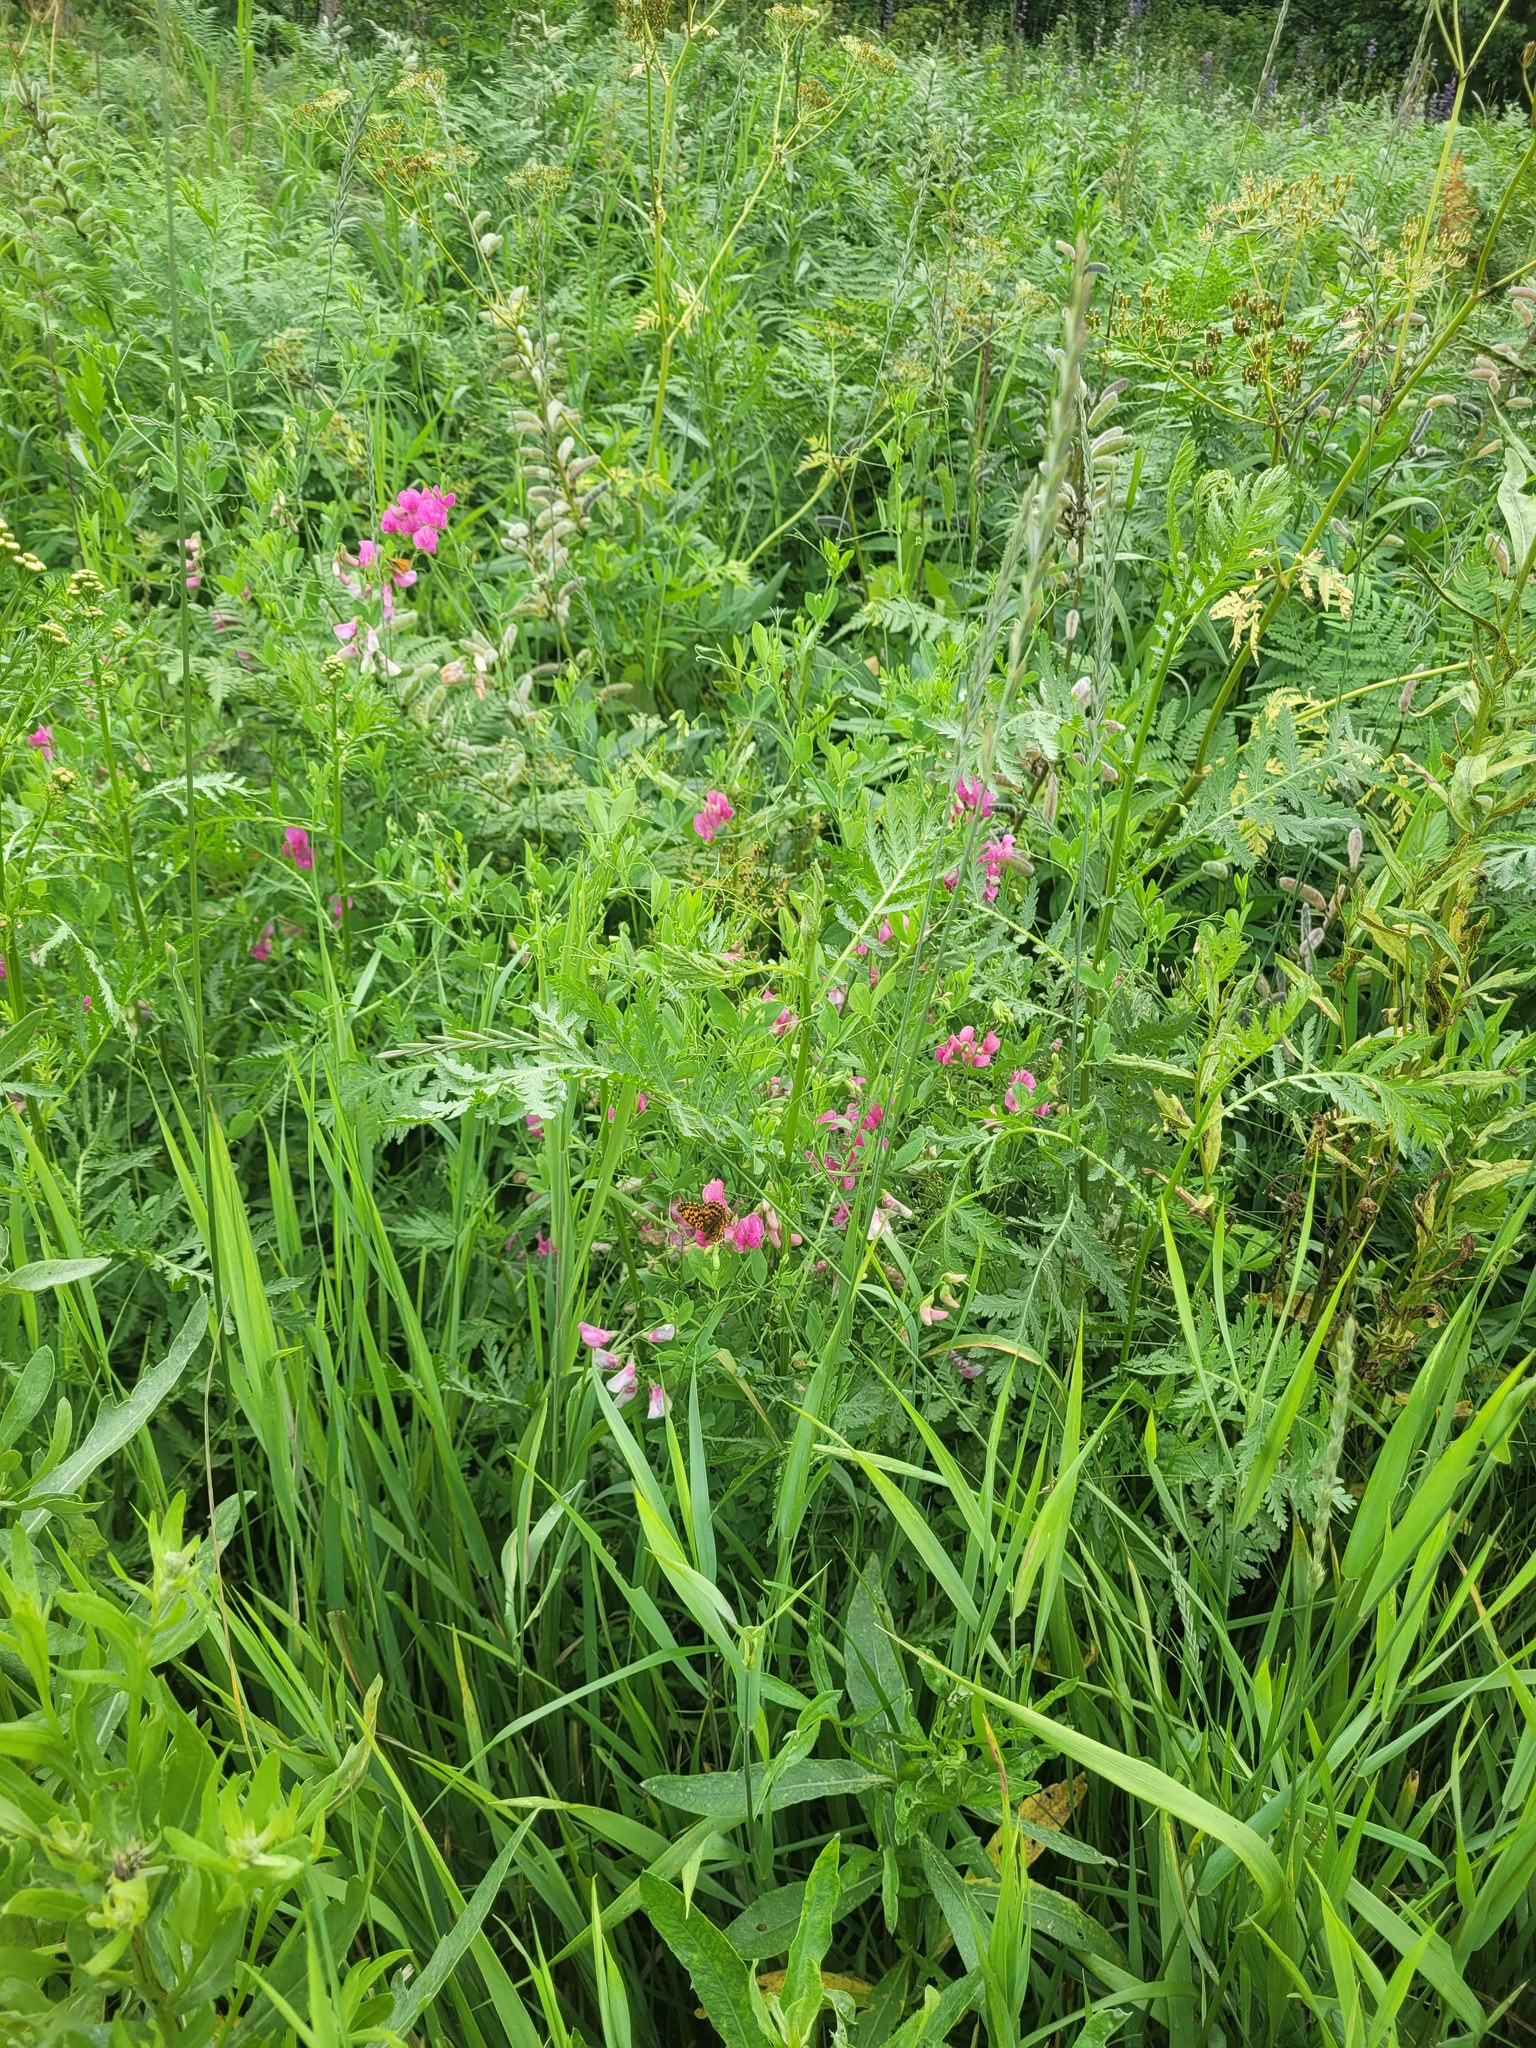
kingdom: Plantae
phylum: Tracheophyta
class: Magnoliopsida
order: Fabales
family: Fabaceae
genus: Lathyrus
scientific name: Lathyrus tuberosus
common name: Tuberous pea
